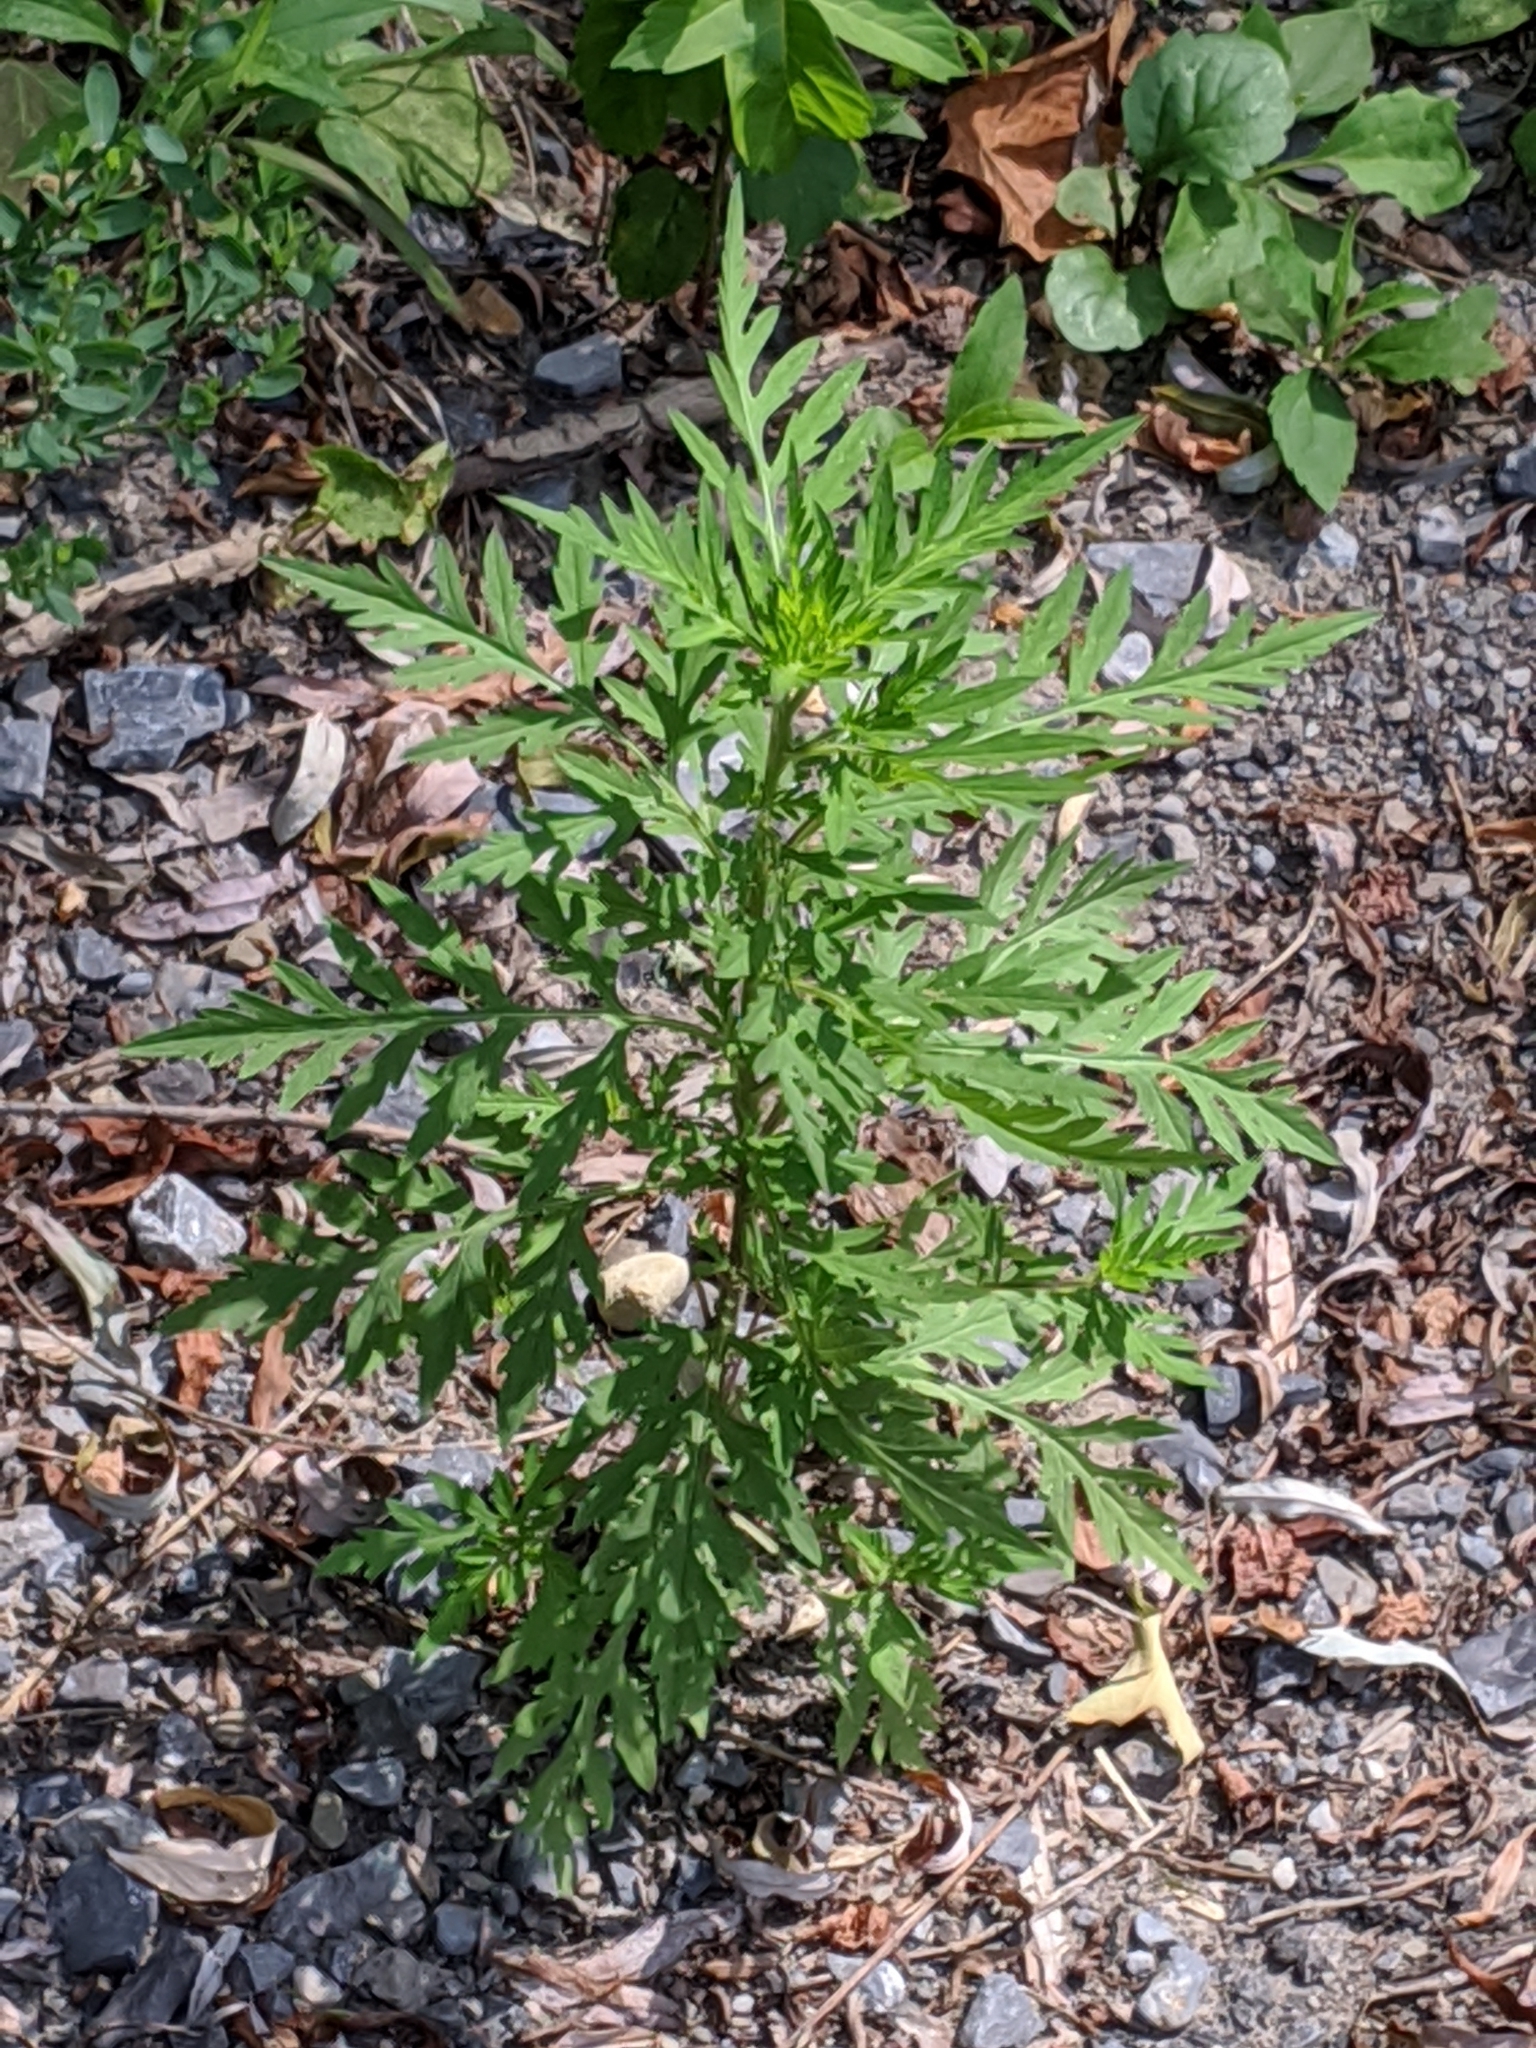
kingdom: Plantae
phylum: Tracheophyta
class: Magnoliopsida
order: Asterales
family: Asteraceae
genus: Ambrosia
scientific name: Ambrosia artemisiifolia
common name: Annual ragweed
